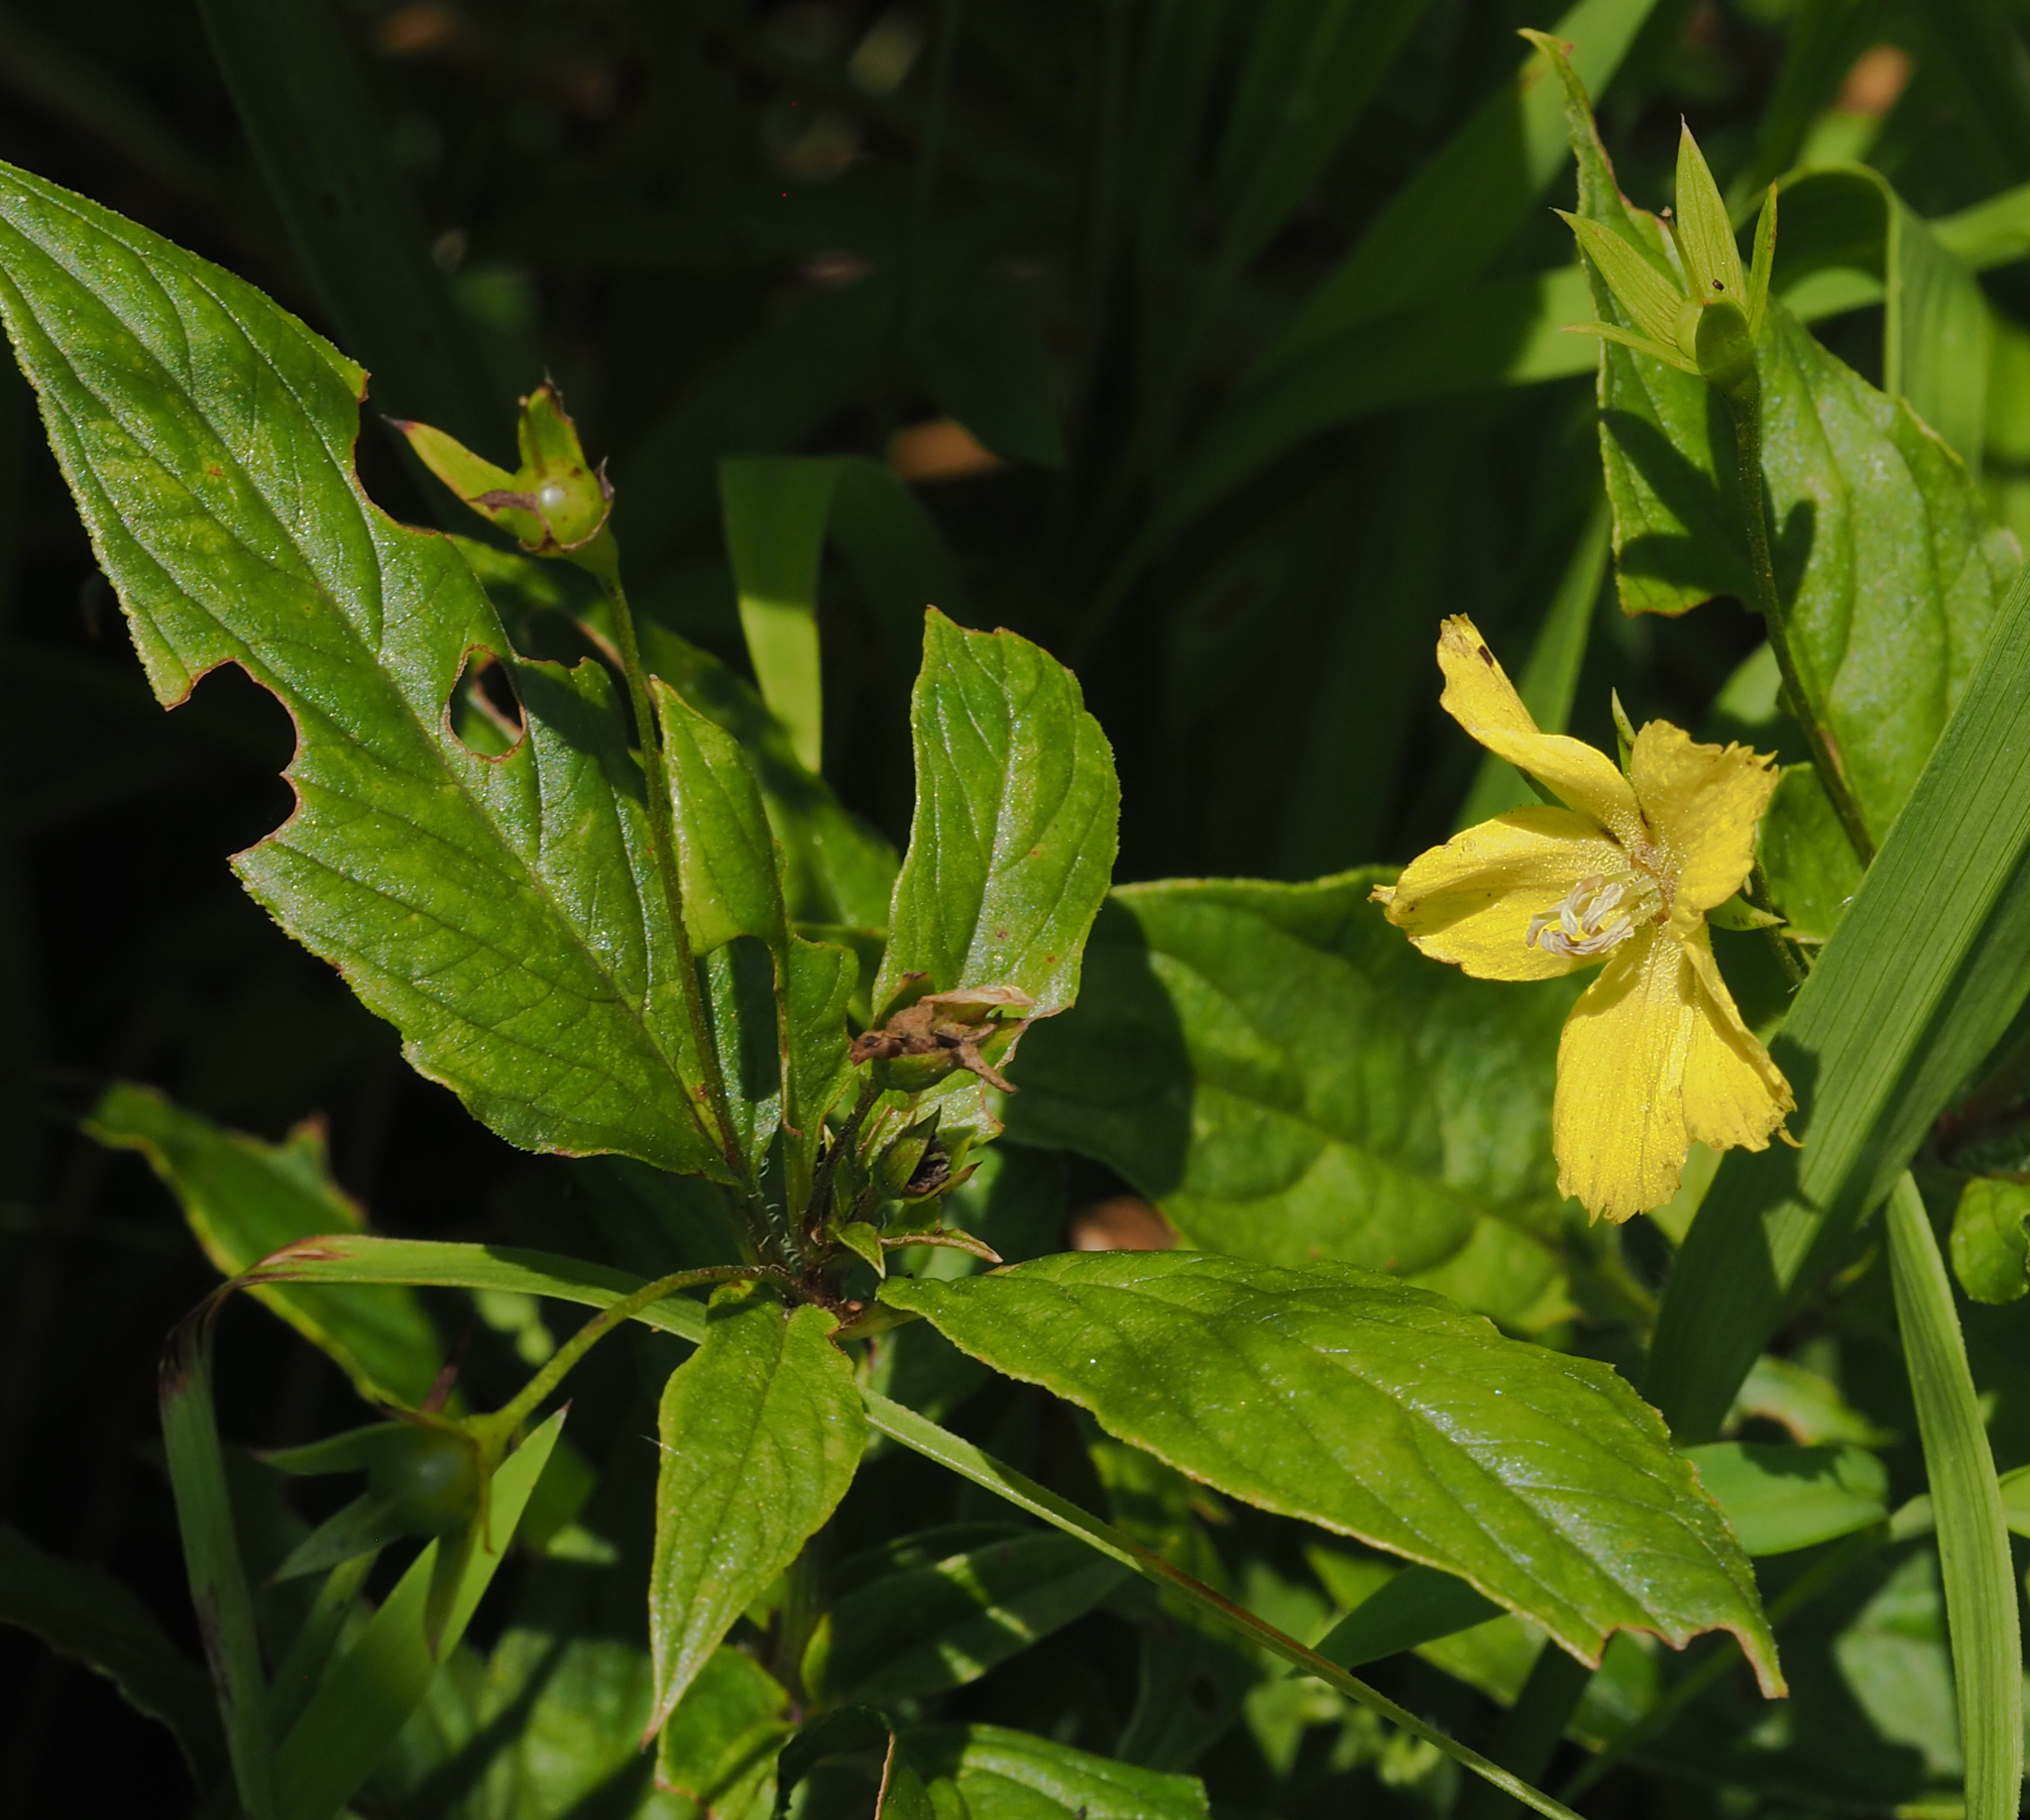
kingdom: Plantae
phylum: Tracheophyta
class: Magnoliopsida
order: Ericales
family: Primulaceae
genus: Lysimachia
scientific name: Lysimachia ciliata
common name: Fringed loosestrife
